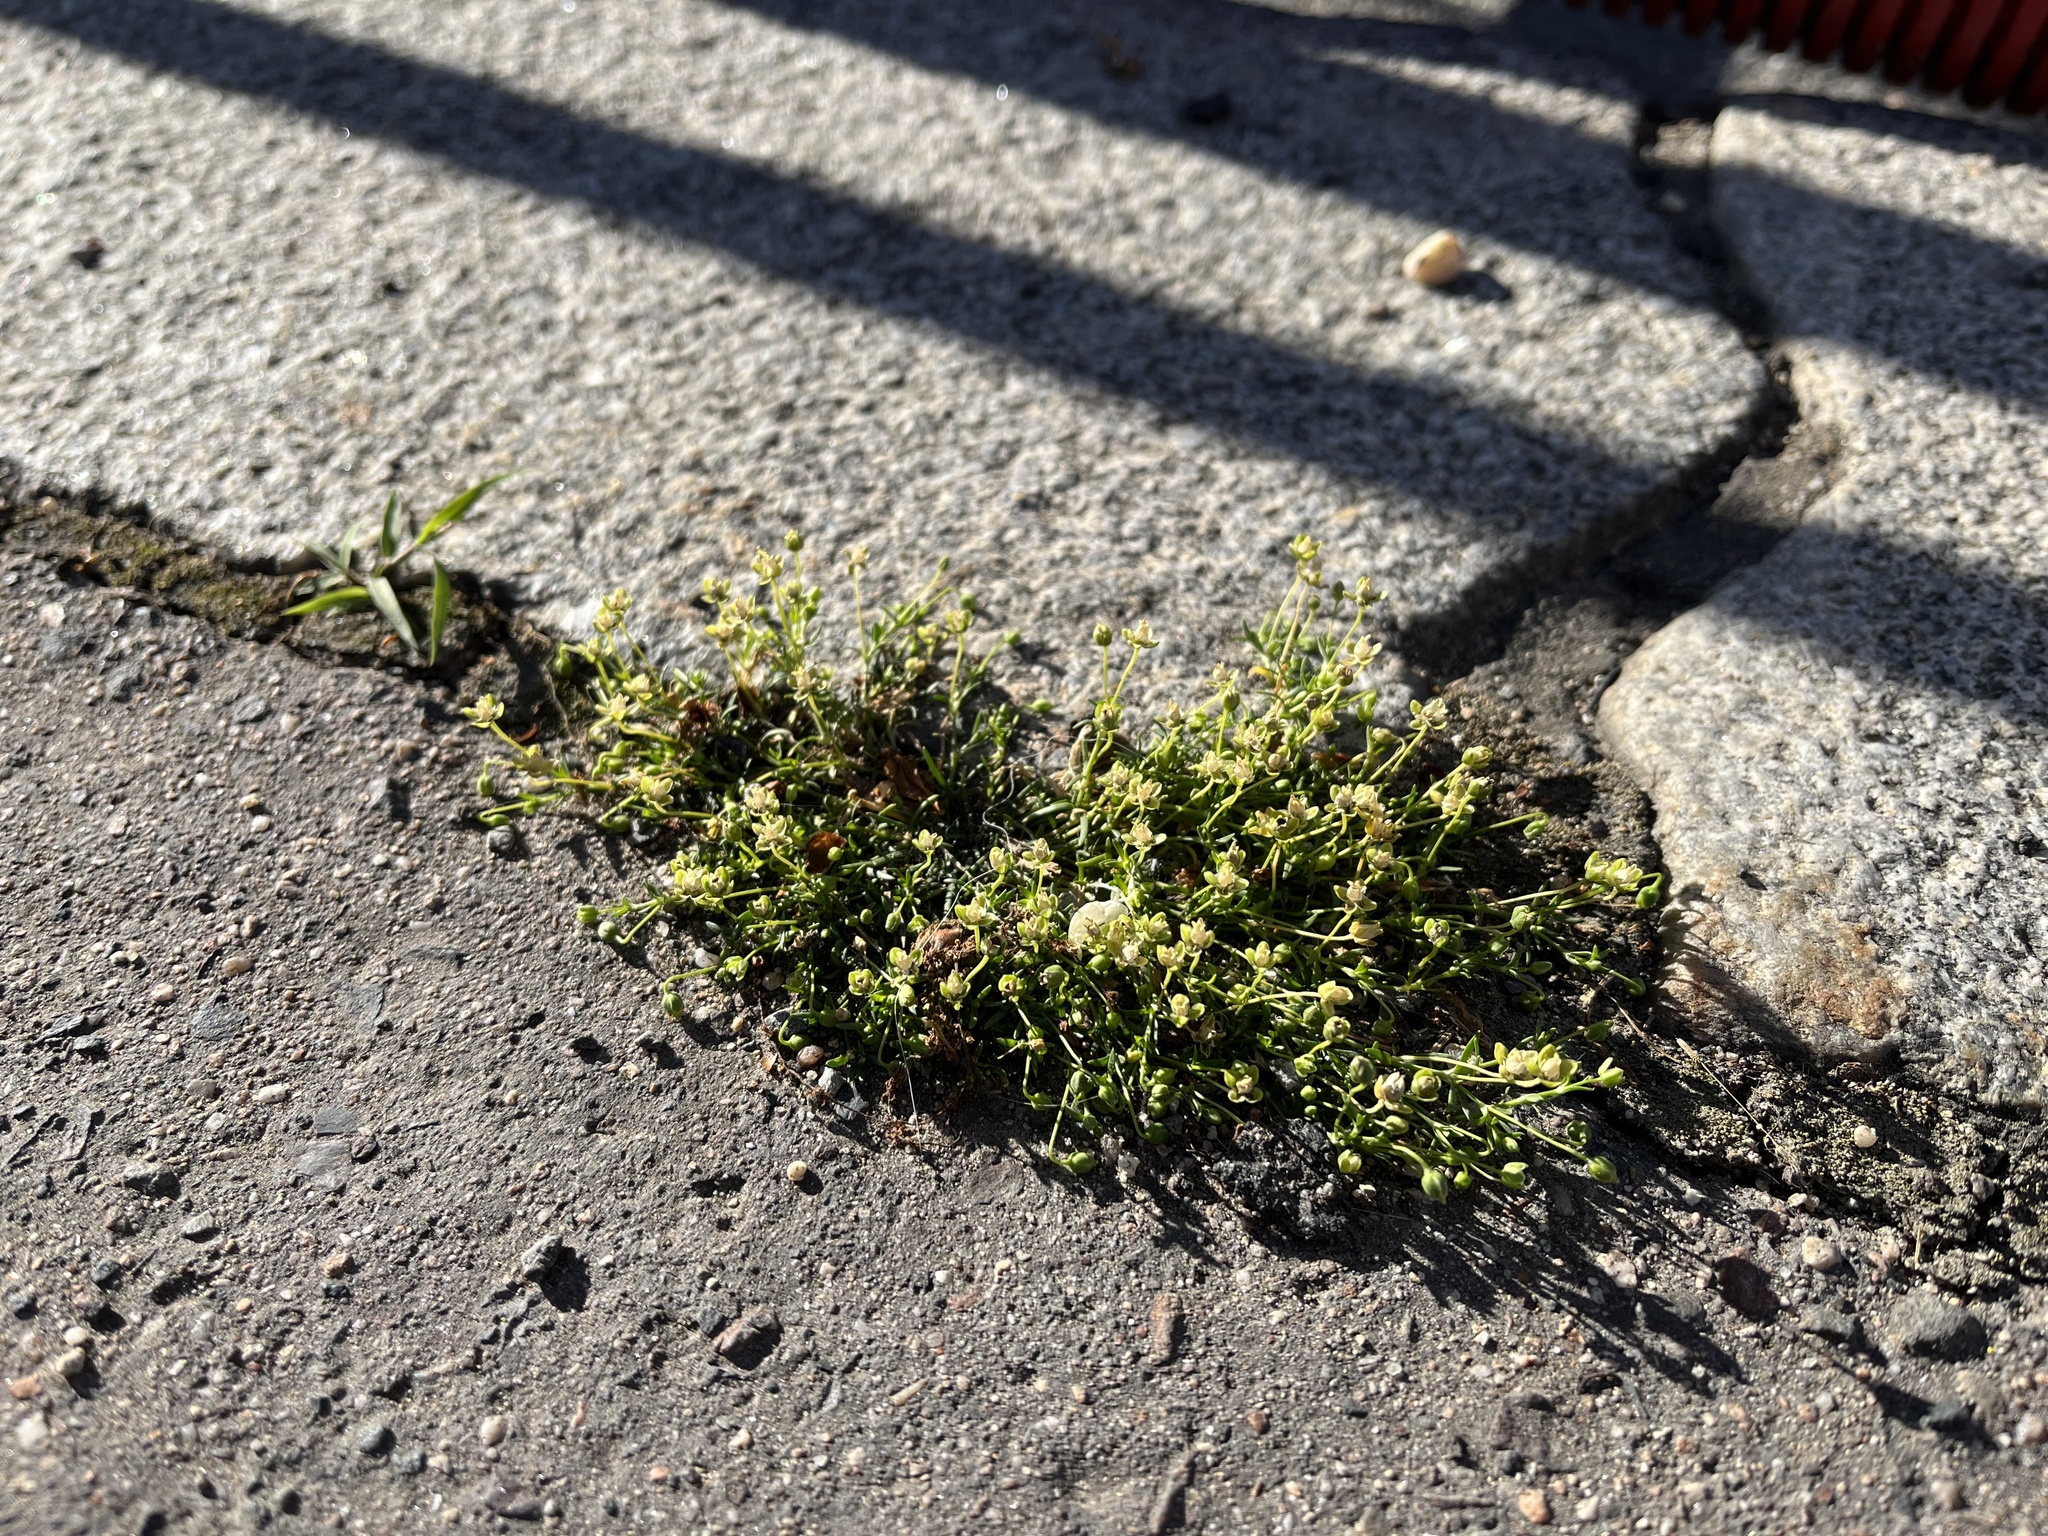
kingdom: Plantae
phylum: Tracheophyta
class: Magnoliopsida
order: Caryophyllales
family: Caryophyllaceae
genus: Sagina
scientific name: Sagina procumbens
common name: Procumbent pearlwort
